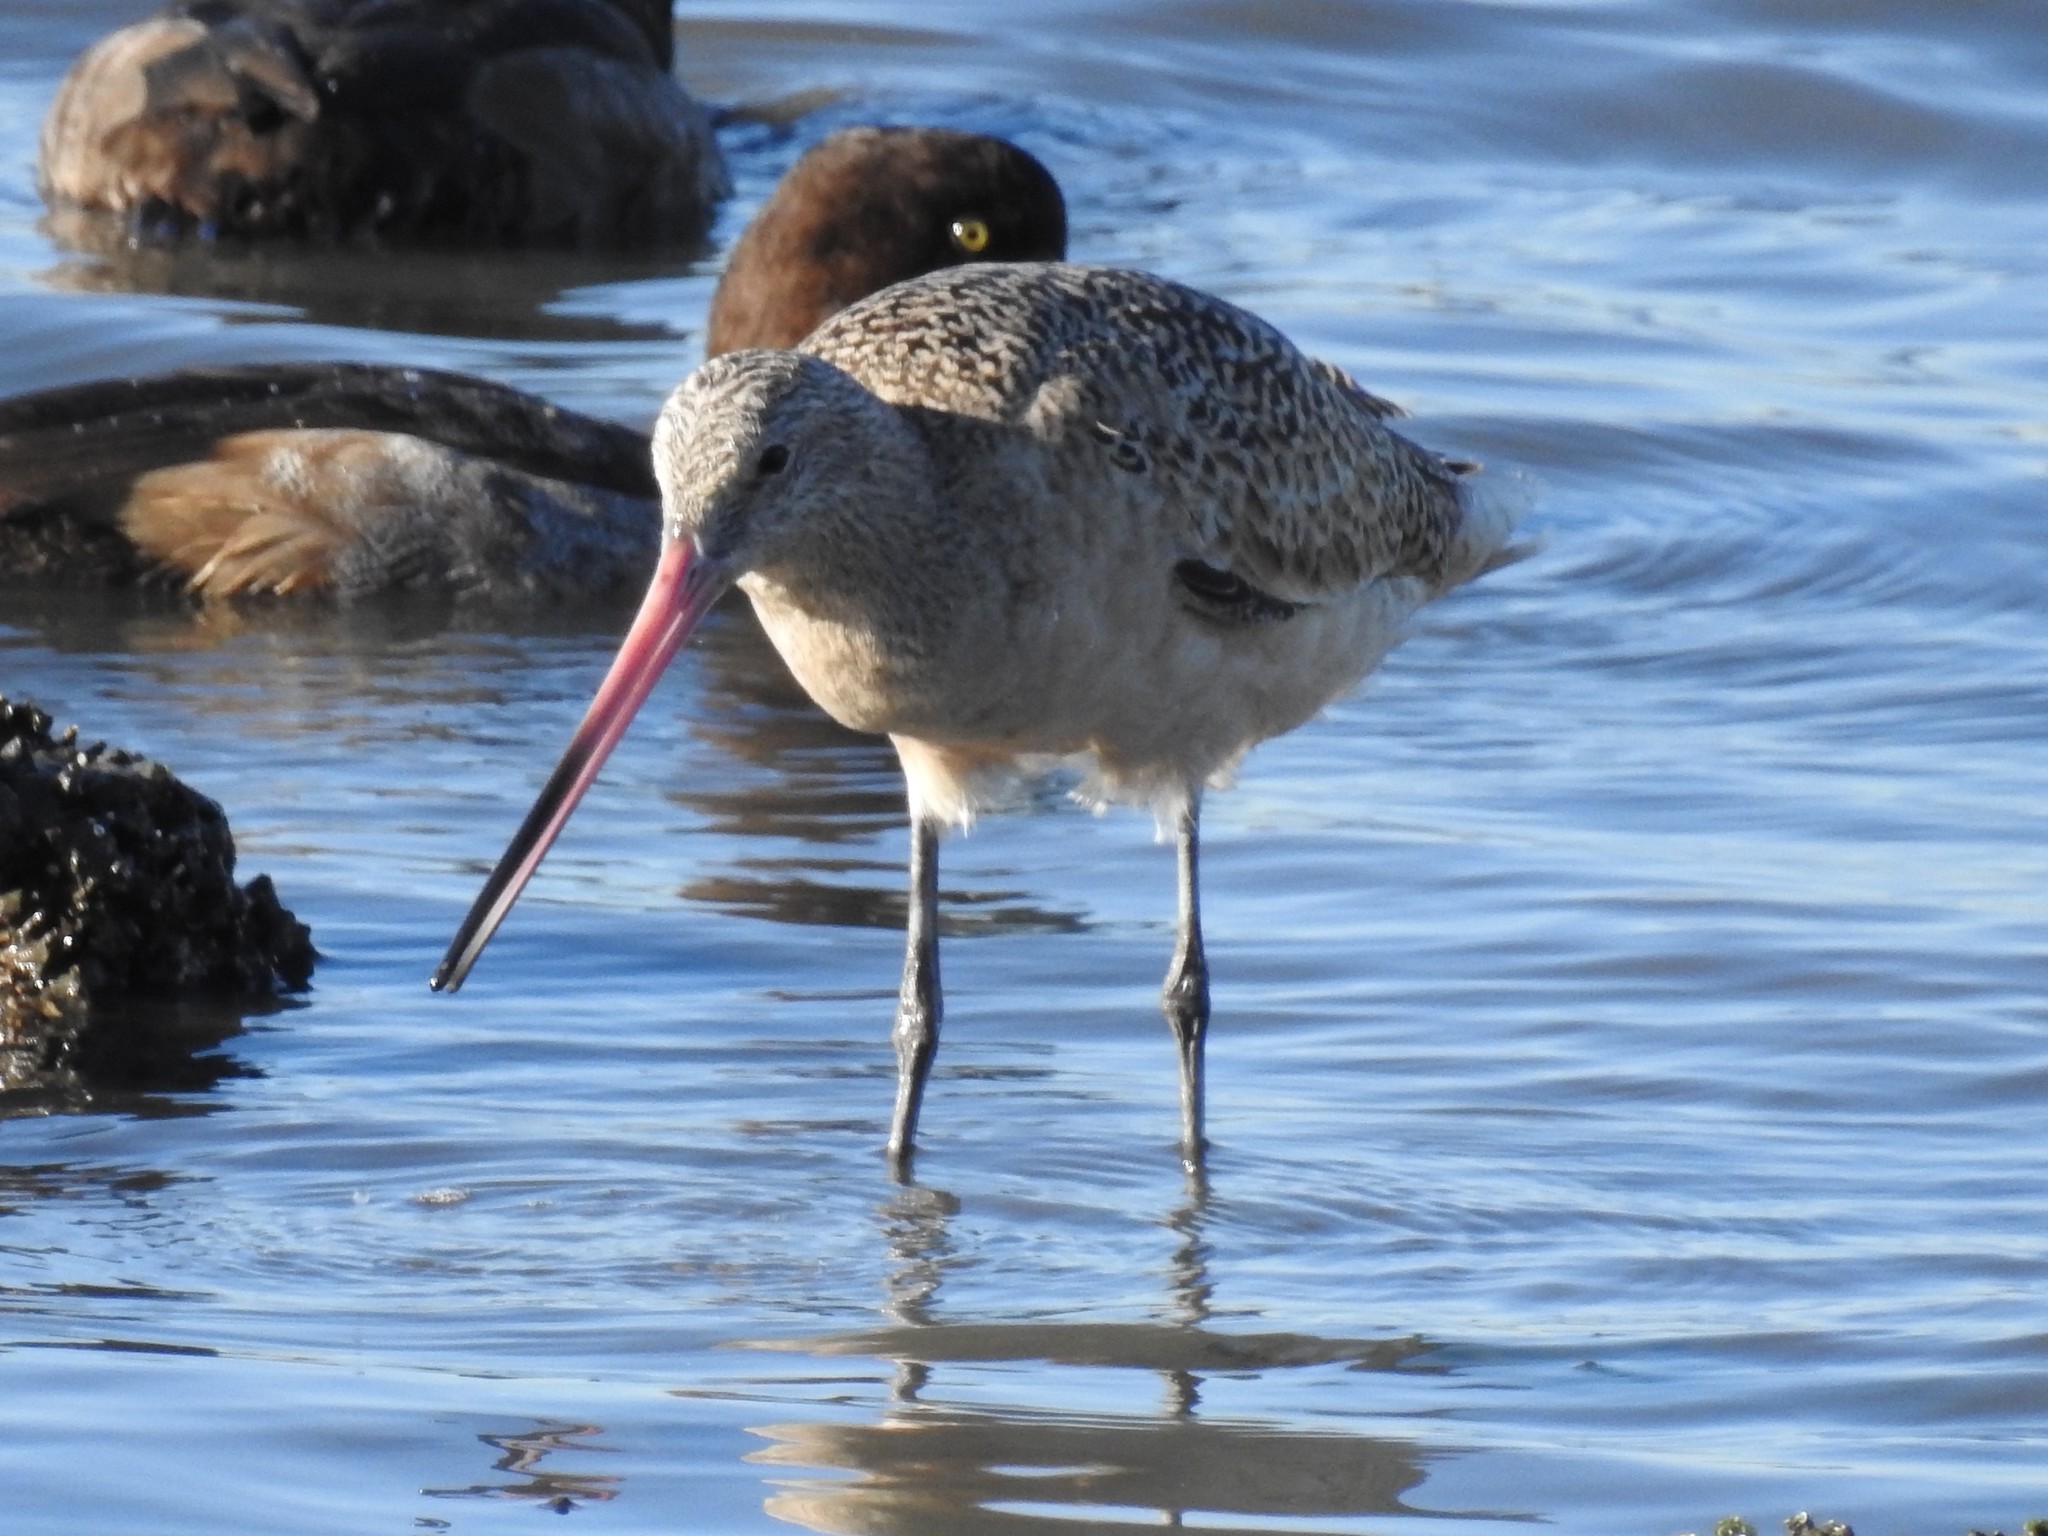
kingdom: Animalia
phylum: Chordata
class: Aves
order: Charadriiformes
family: Scolopacidae
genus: Limosa
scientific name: Limosa fedoa
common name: Marbled godwit
